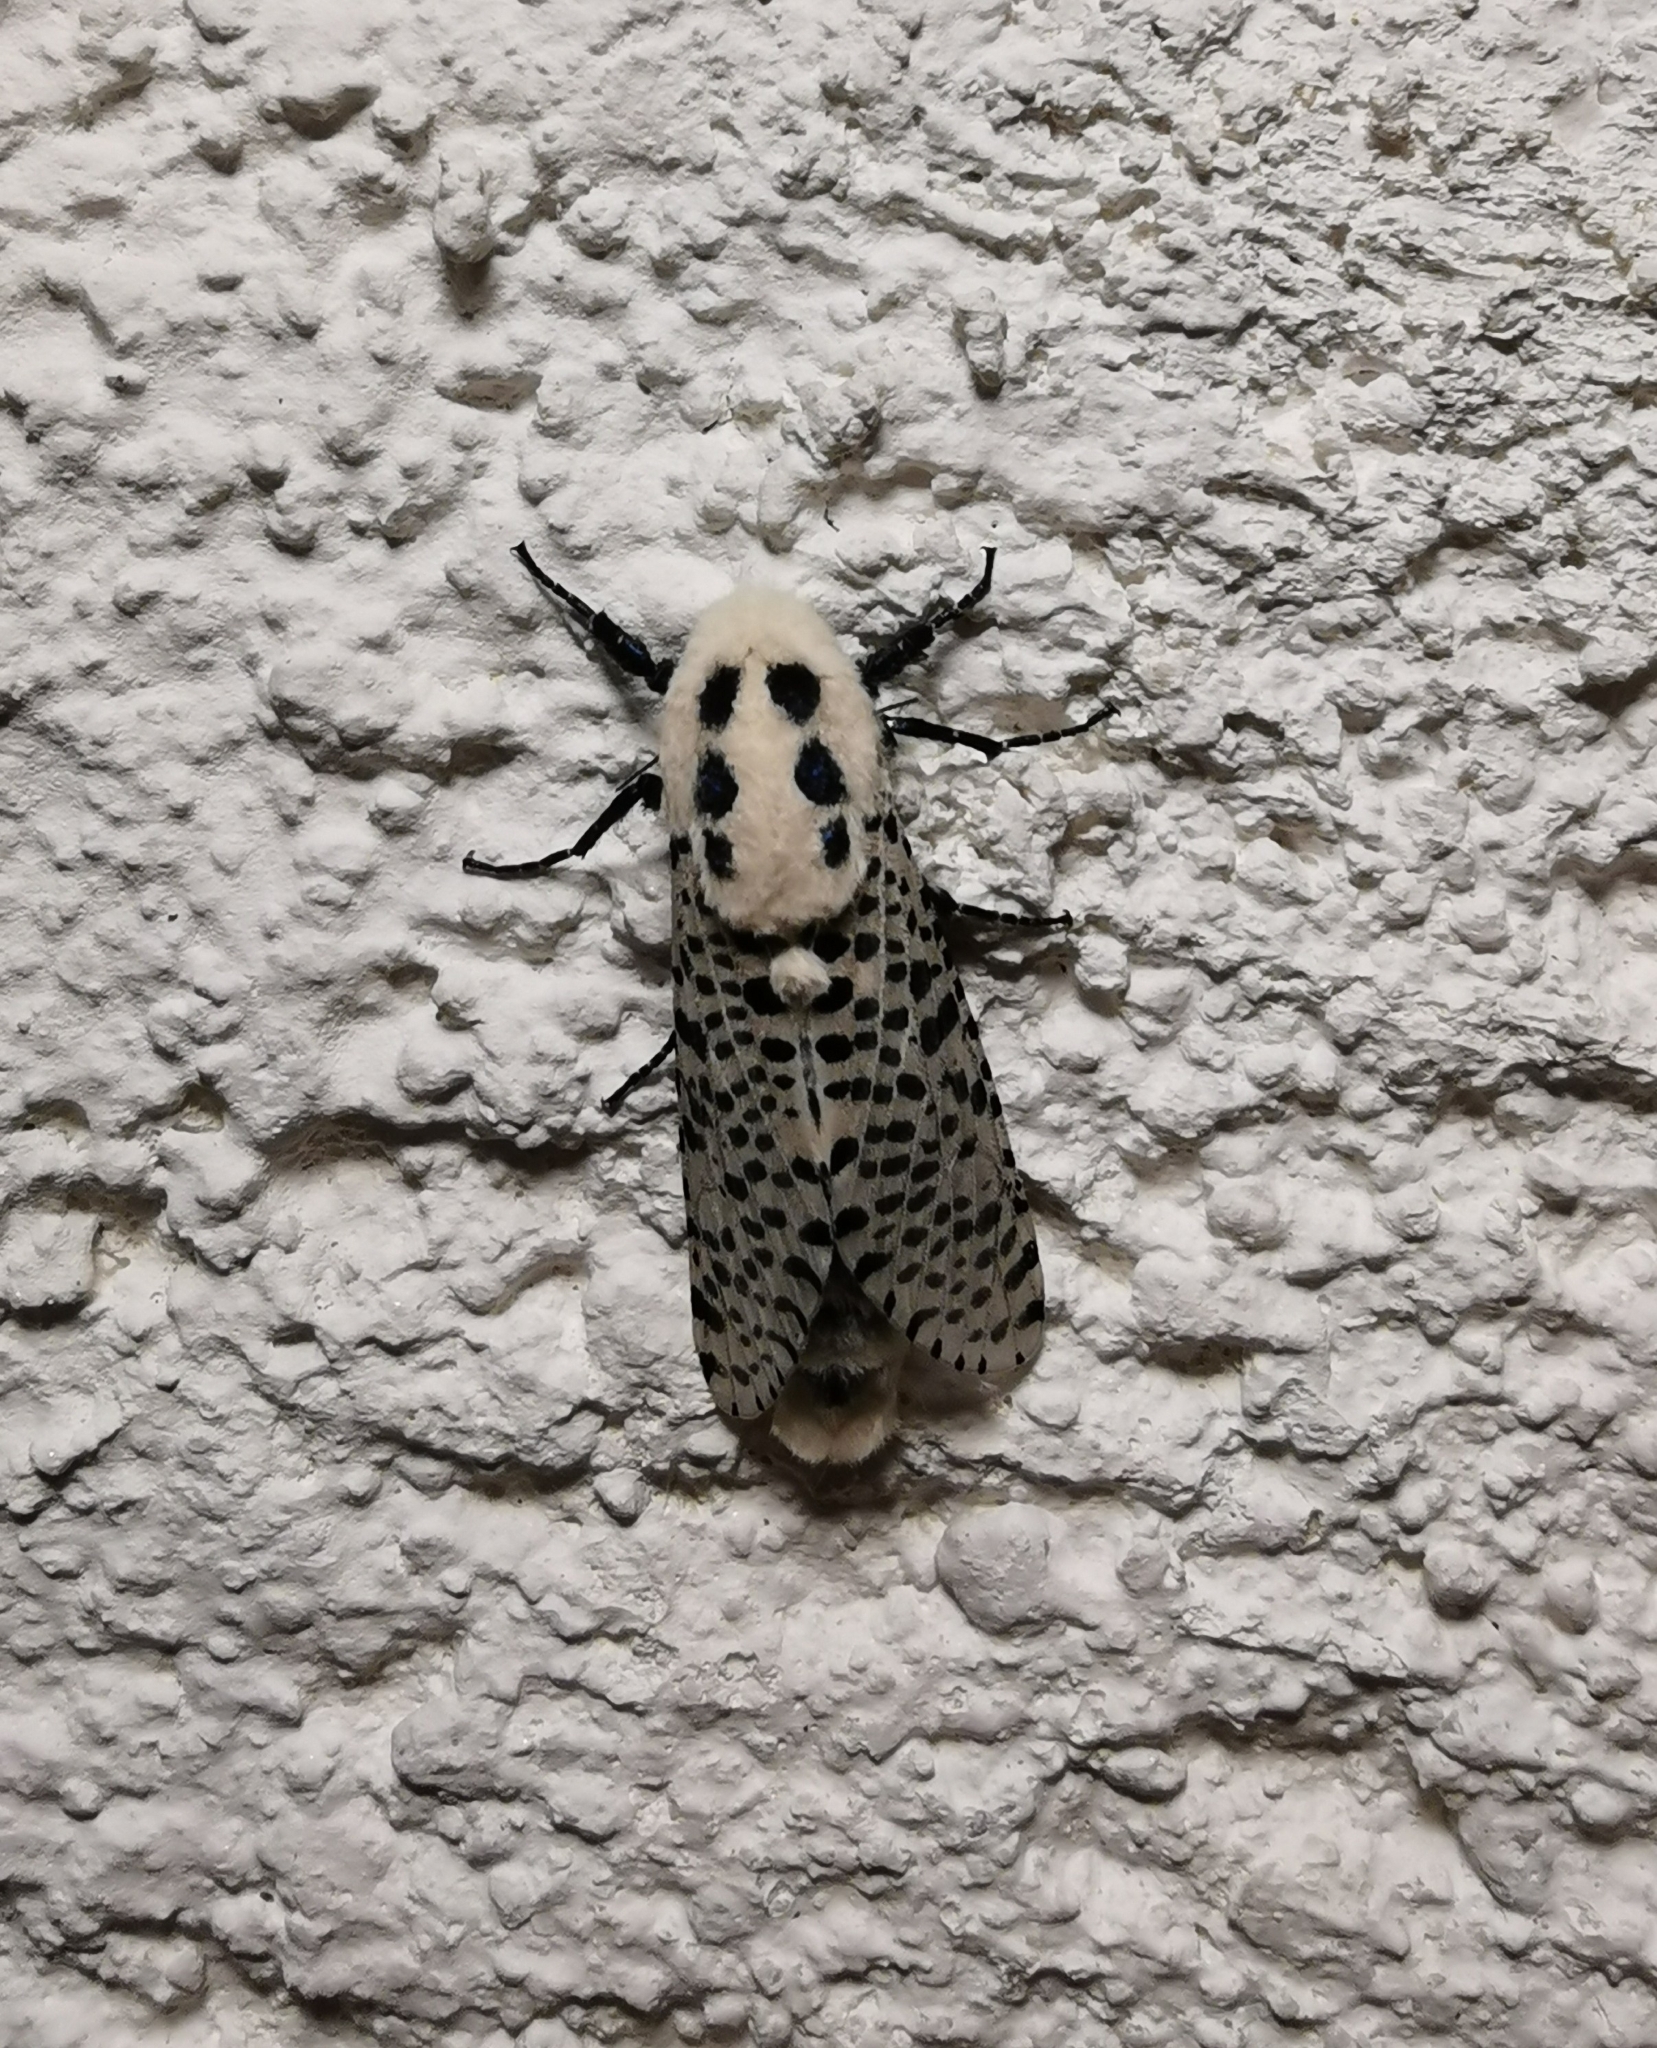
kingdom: Animalia
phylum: Arthropoda
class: Insecta
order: Lepidoptera
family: Cossidae
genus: Zeuzera
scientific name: Zeuzera pyrina
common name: Leopard moth
